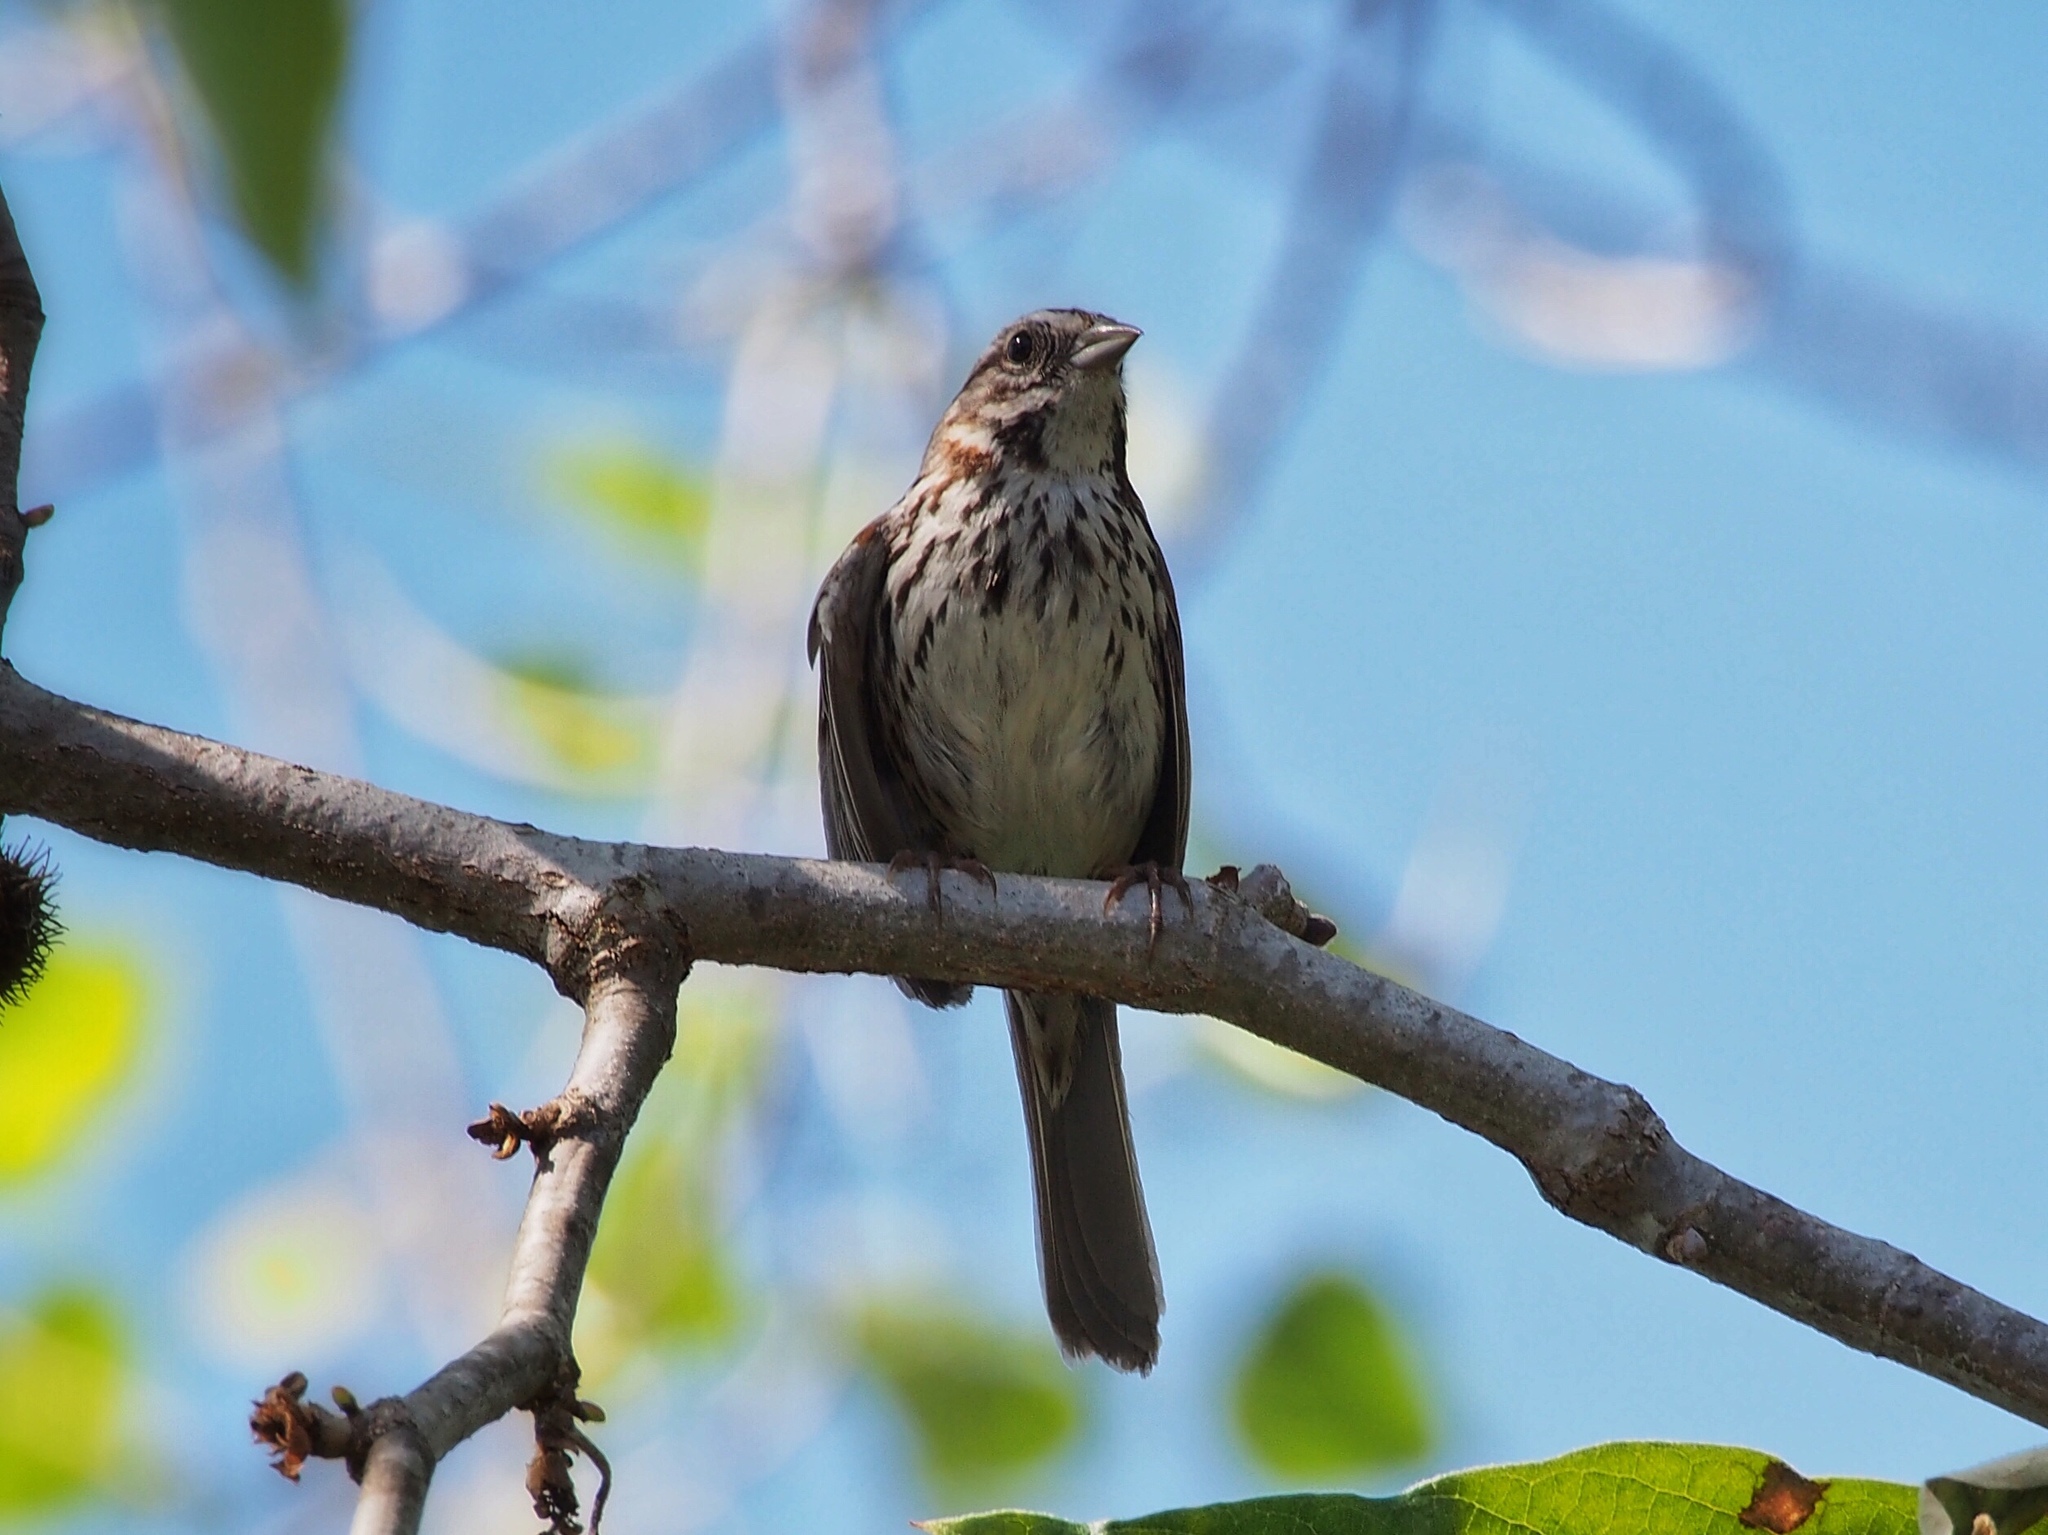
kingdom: Animalia
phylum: Chordata
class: Aves
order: Passeriformes
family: Passerellidae
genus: Melospiza
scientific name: Melospiza melodia
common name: Song sparrow
